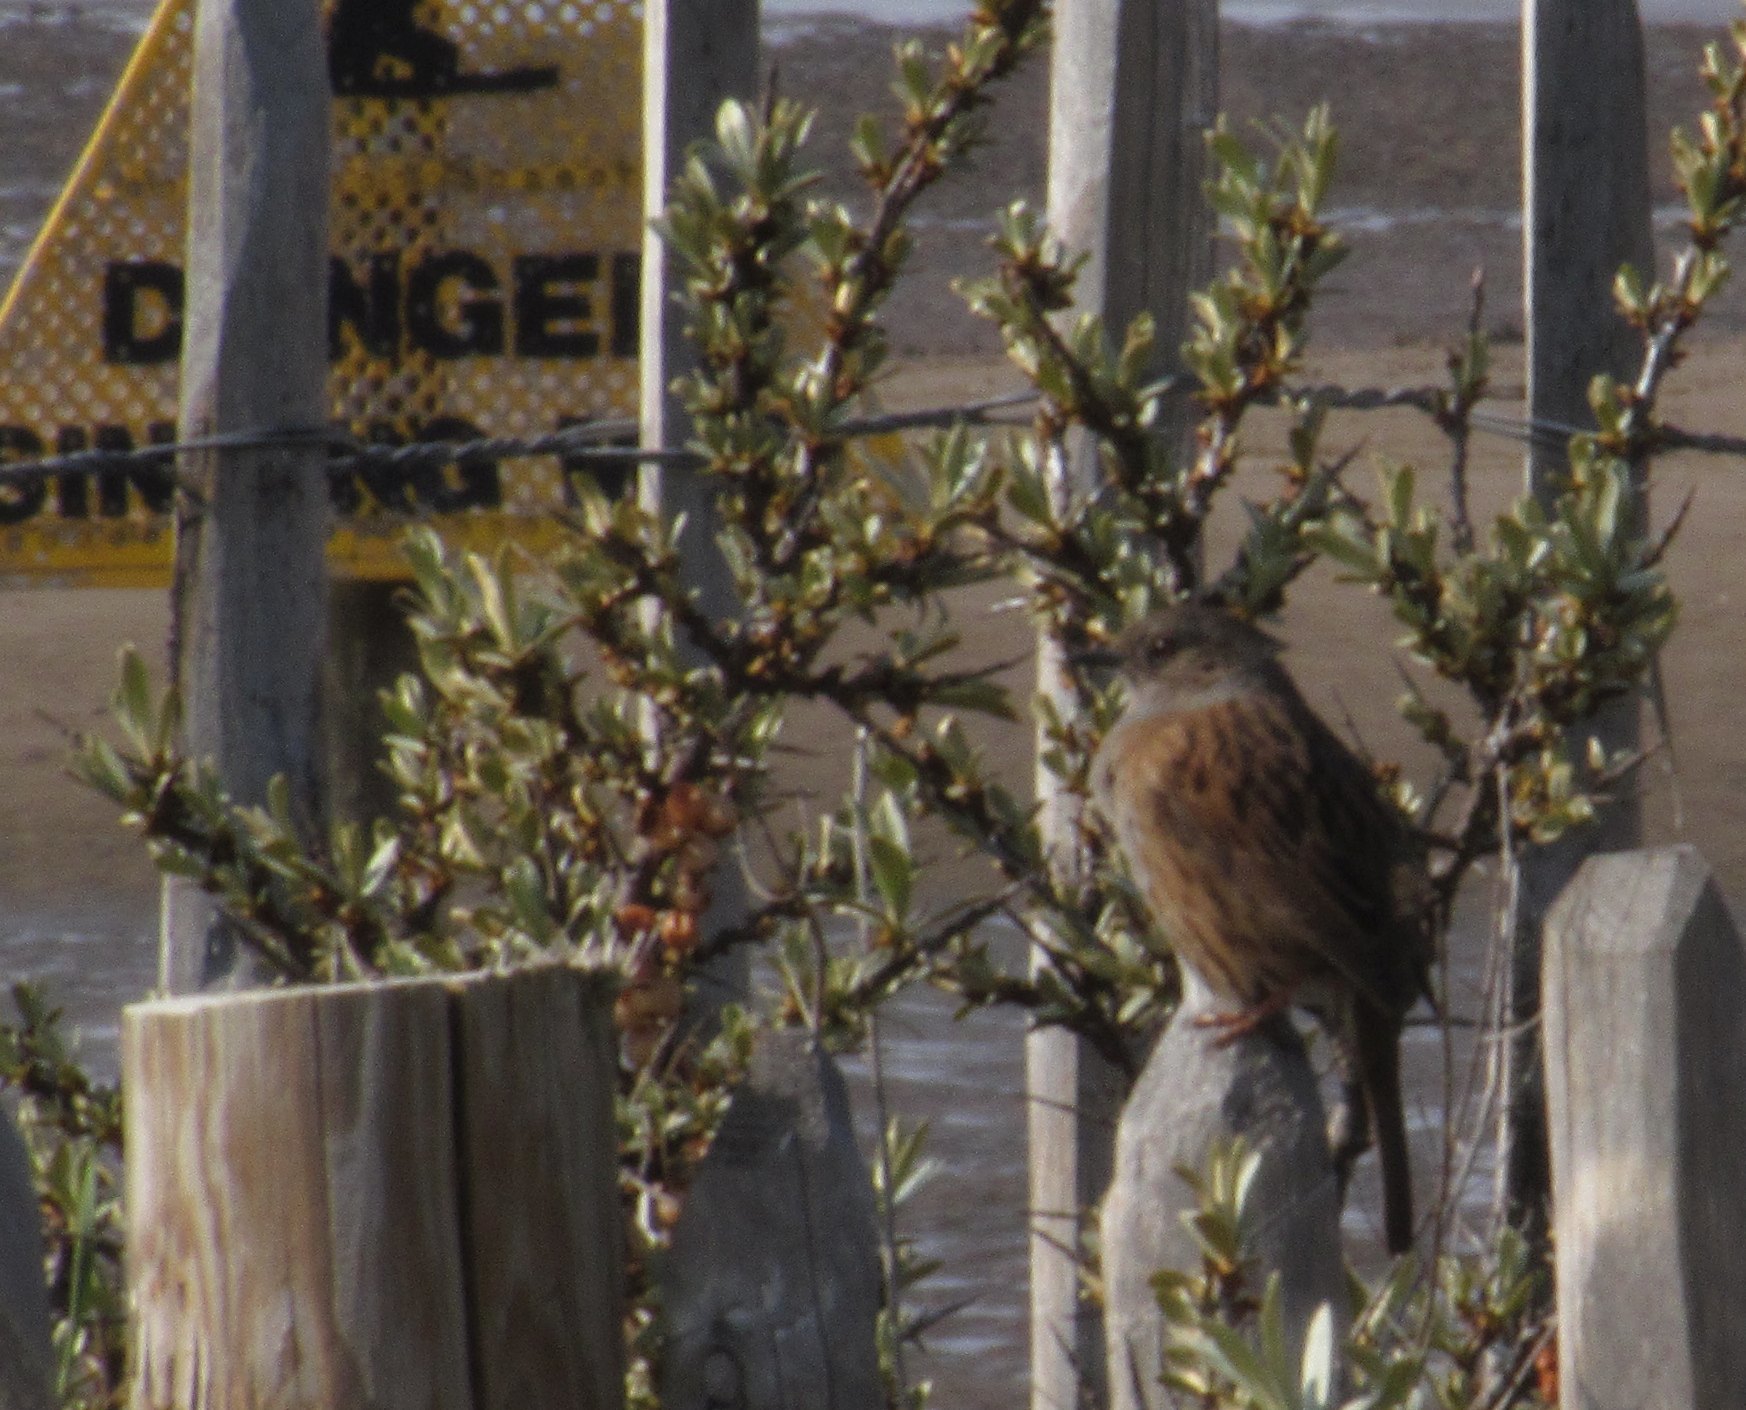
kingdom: Animalia
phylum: Chordata
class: Aves
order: Passeriformes
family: Prunellidae
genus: Prunella
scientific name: Prunella modularis
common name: Dunnock
